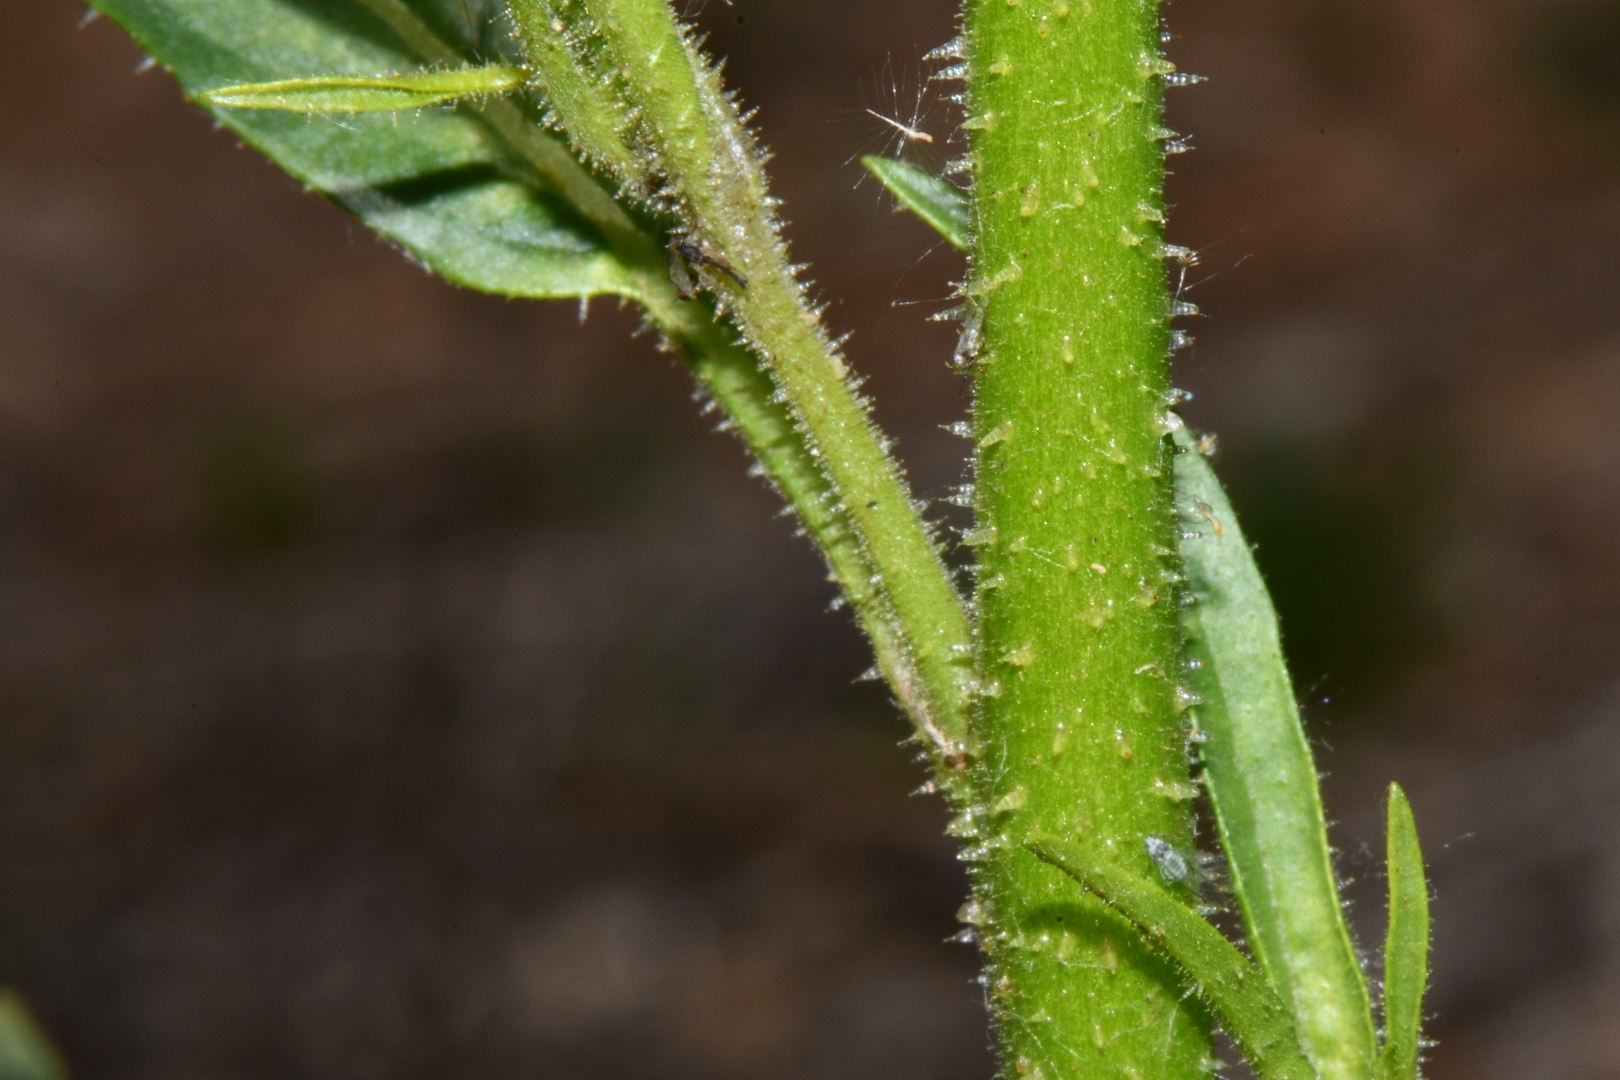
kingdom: Plantae
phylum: Tracheophyta
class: Magnoliopsida
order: Solanales
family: Solanaceae
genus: Nicotiana
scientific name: Nicotiana attenuata
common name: Coyote tobacco
